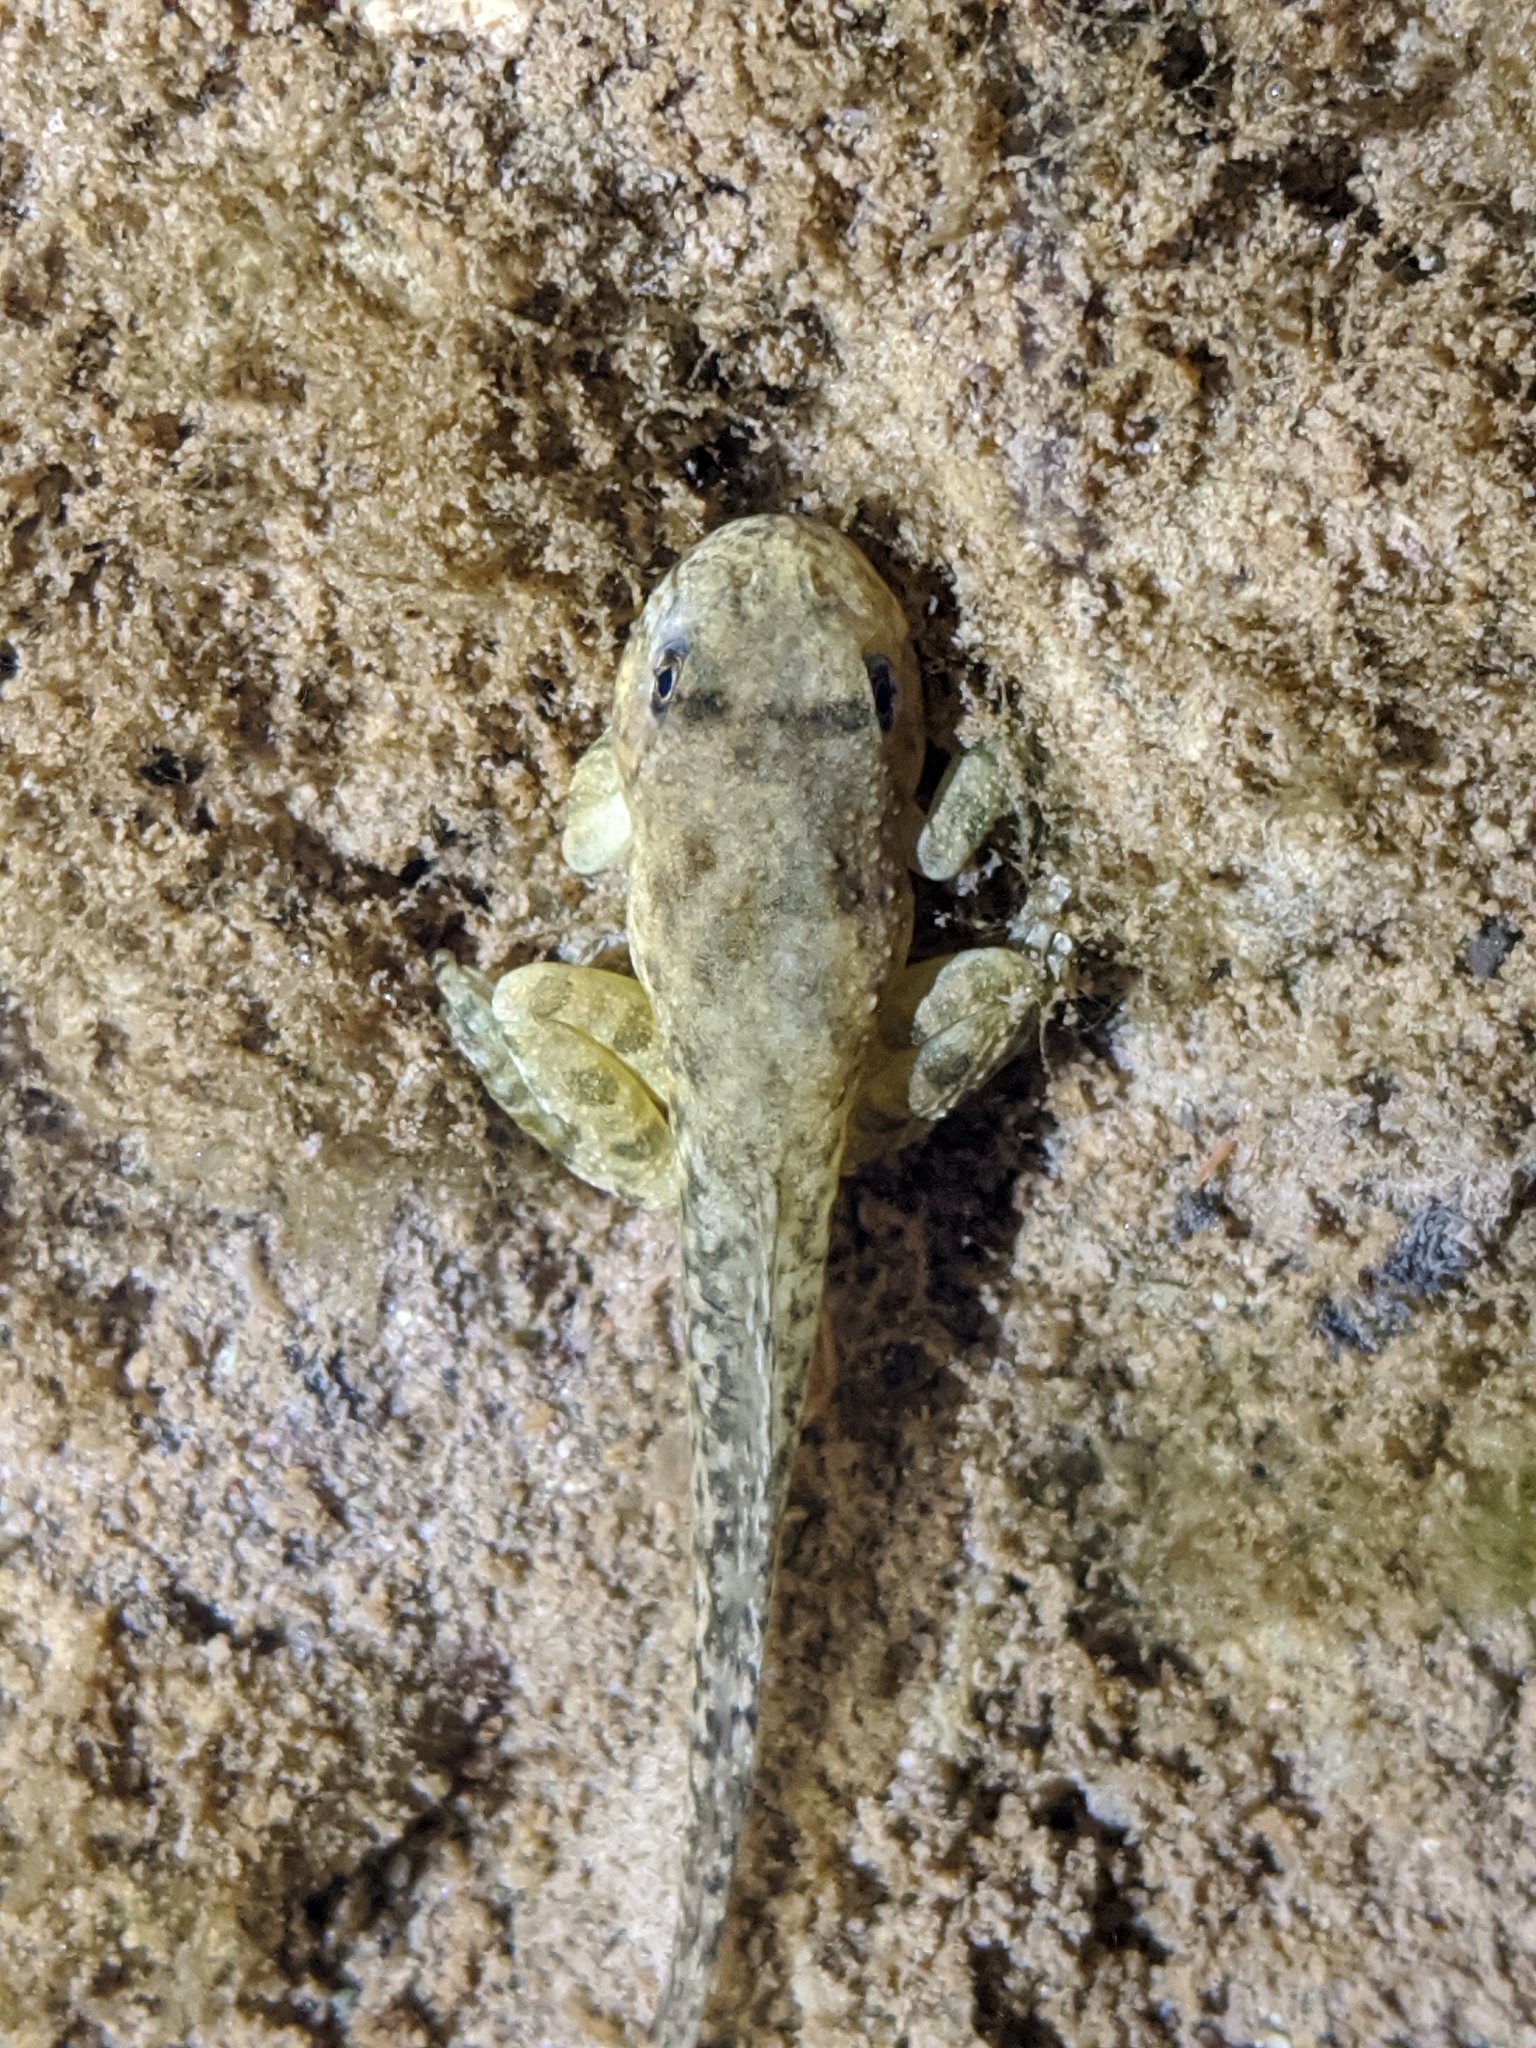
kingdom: Animalia
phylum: Chordata
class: Amphibia
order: Anura
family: Hylidae
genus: Pseudacris
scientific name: Pseudacris cadaverina
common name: California chorus frog
